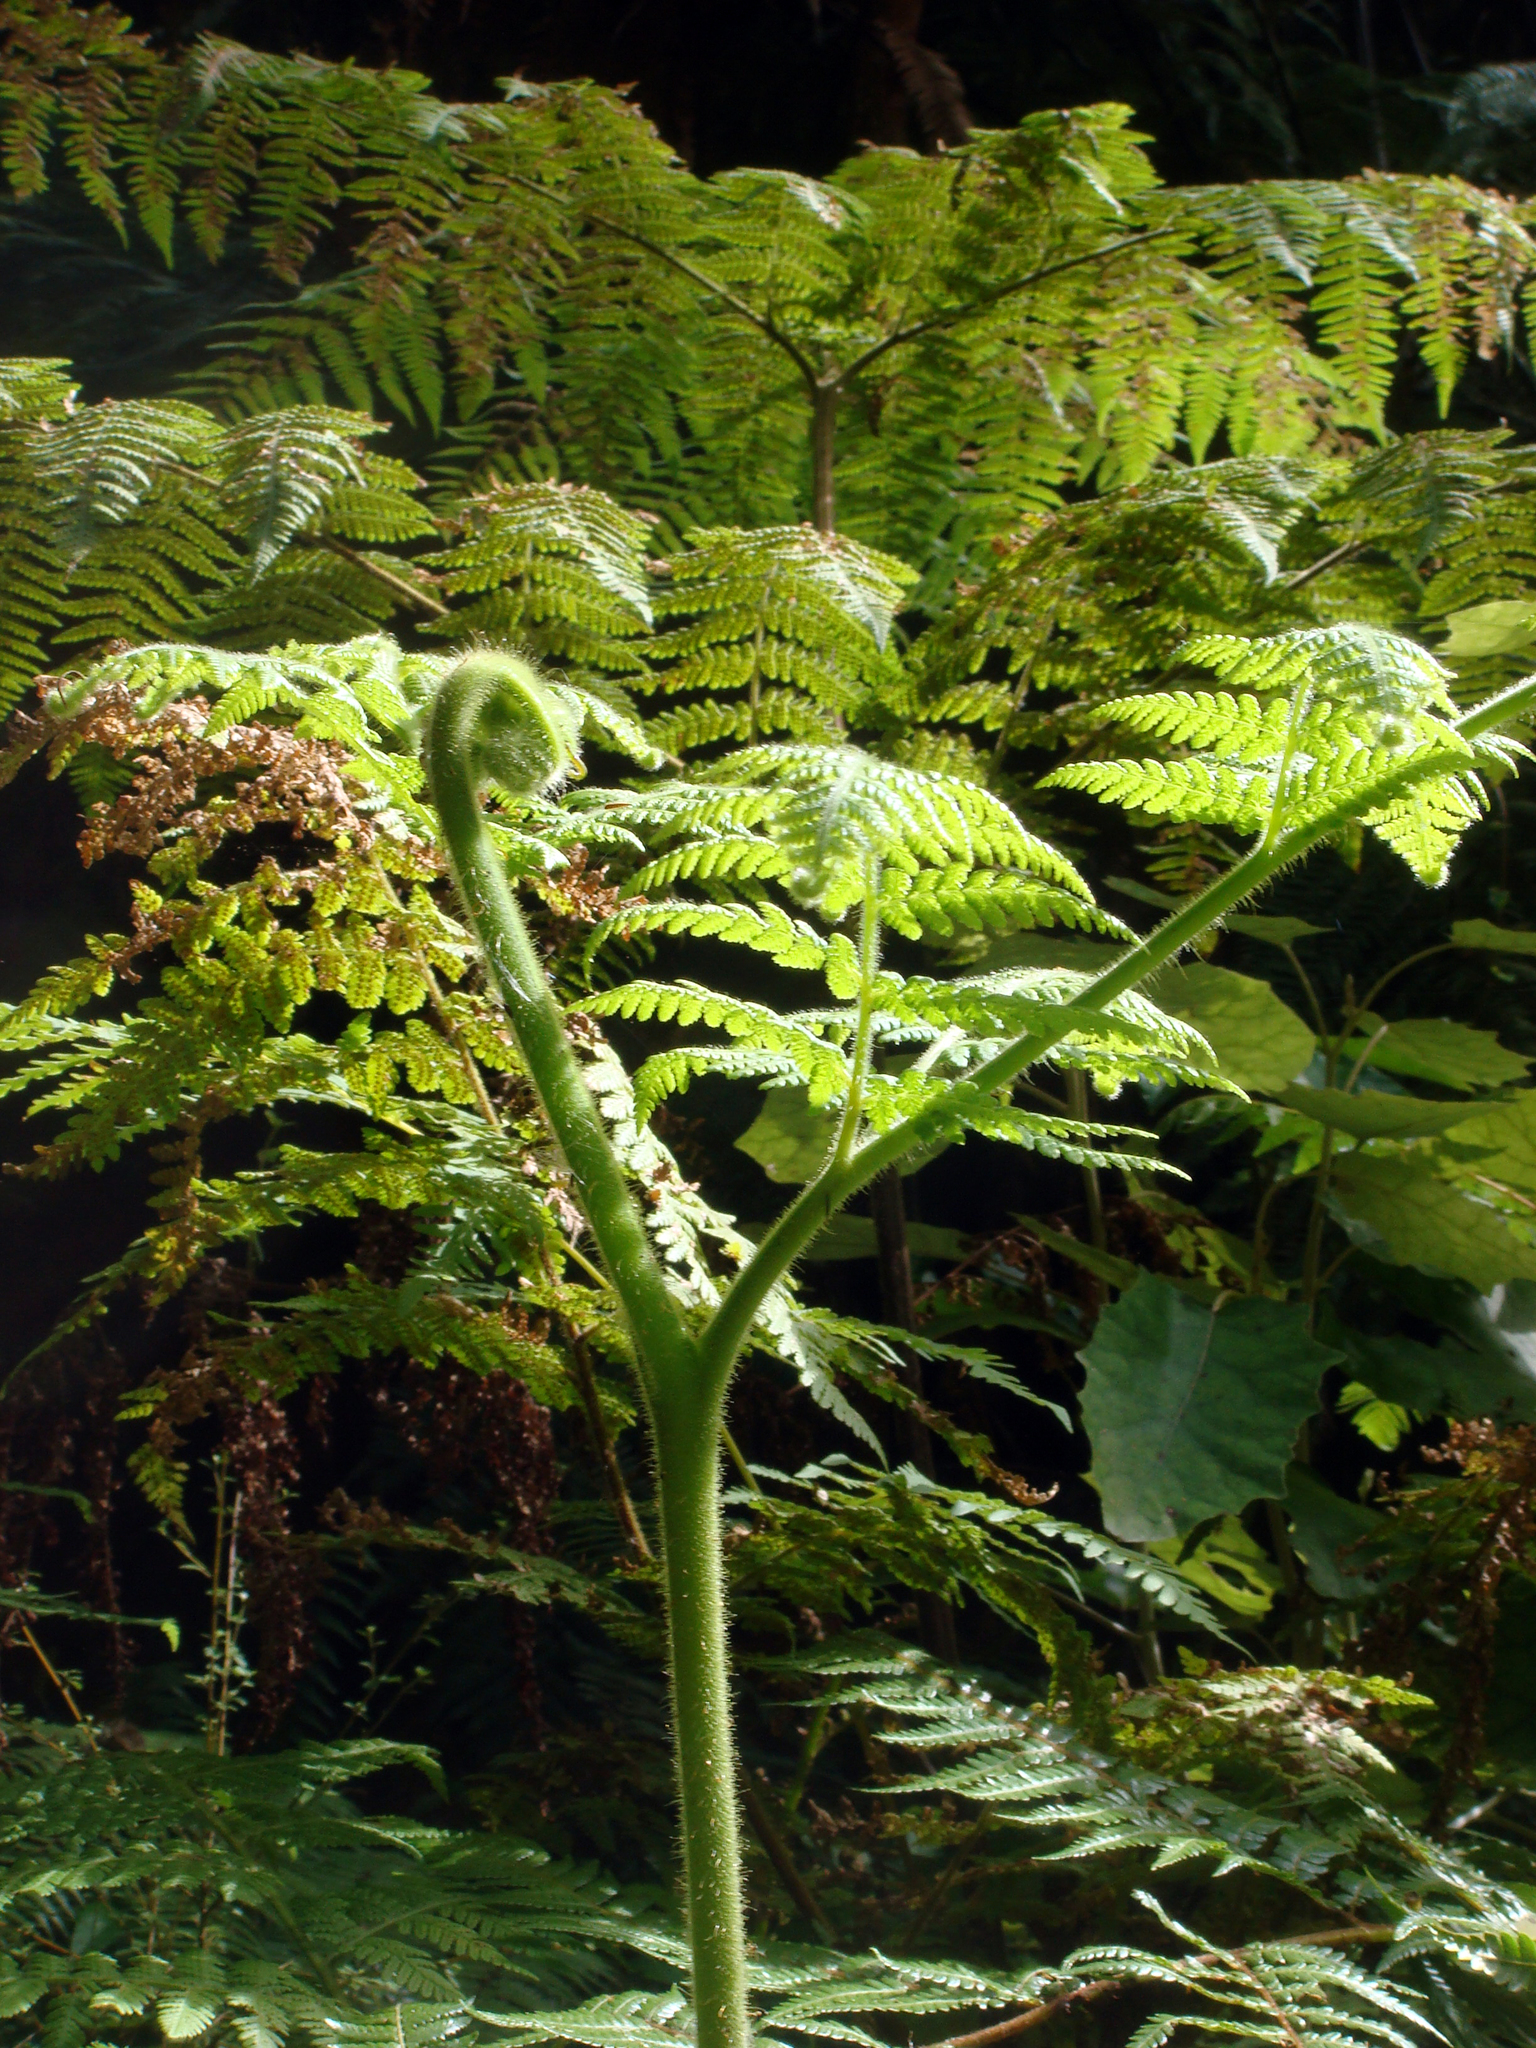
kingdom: Plantae
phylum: Tracheophyta
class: Polypodiopsida
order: Polypodiales
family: Dennstaedtiaceae
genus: Hypolepis
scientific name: Hypolepis dicksonioides
